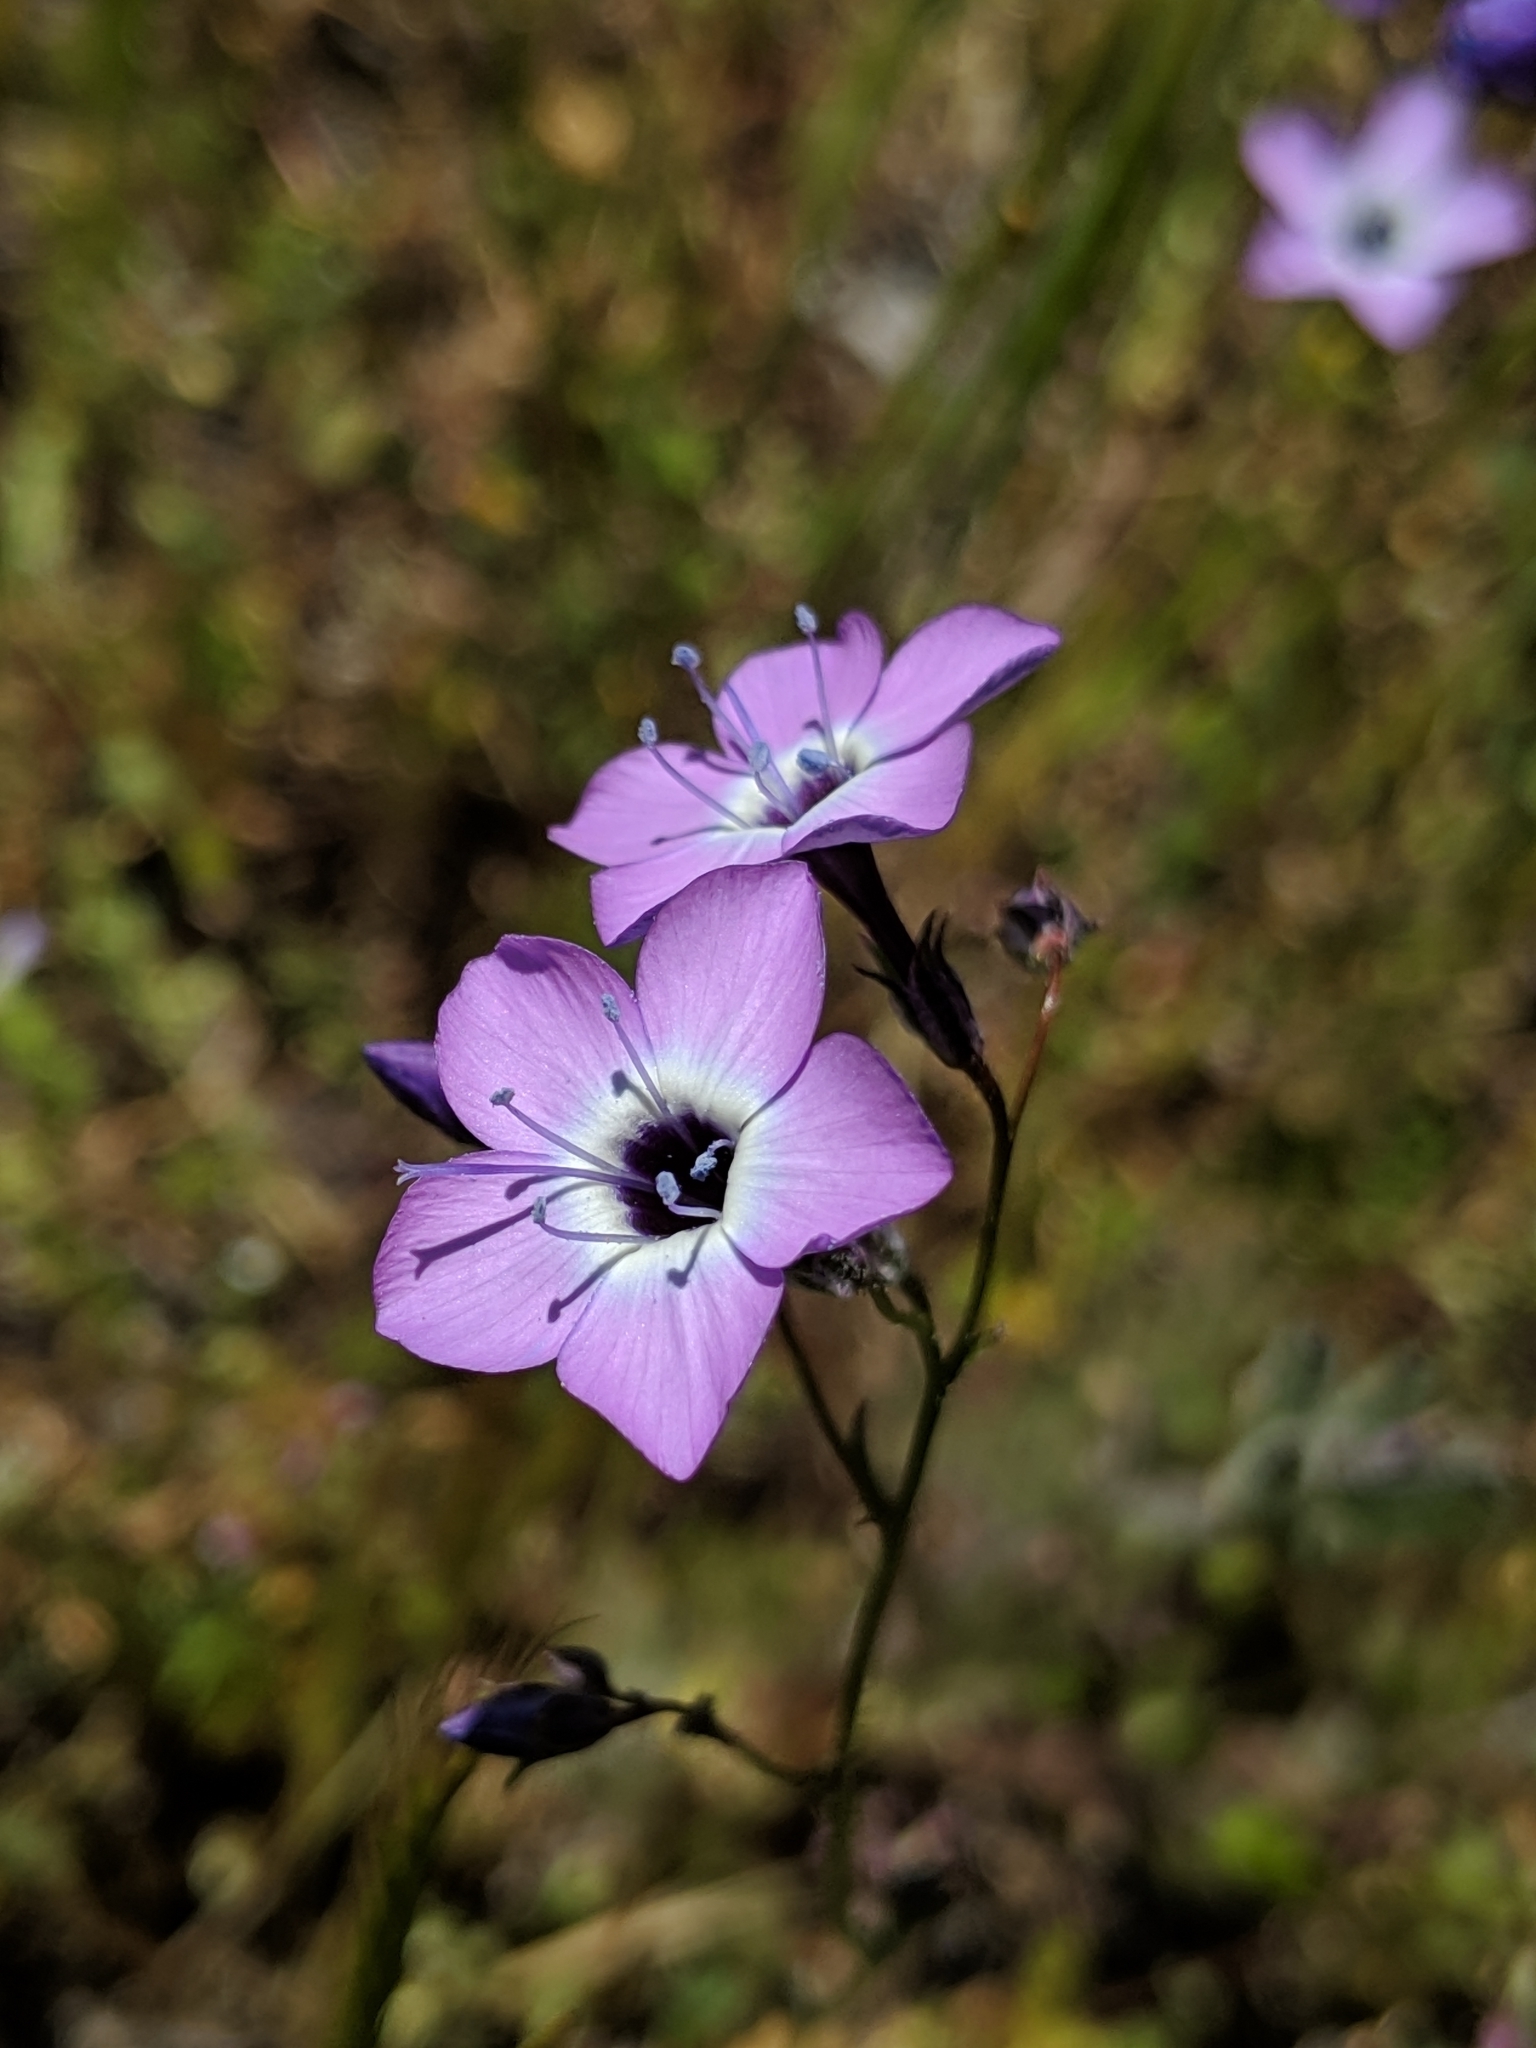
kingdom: Plantae
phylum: Tracheophyta
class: Magnoliopsida
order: Ericales
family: Polemoniaceae
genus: Gilia
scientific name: Gilia tenuiflora
